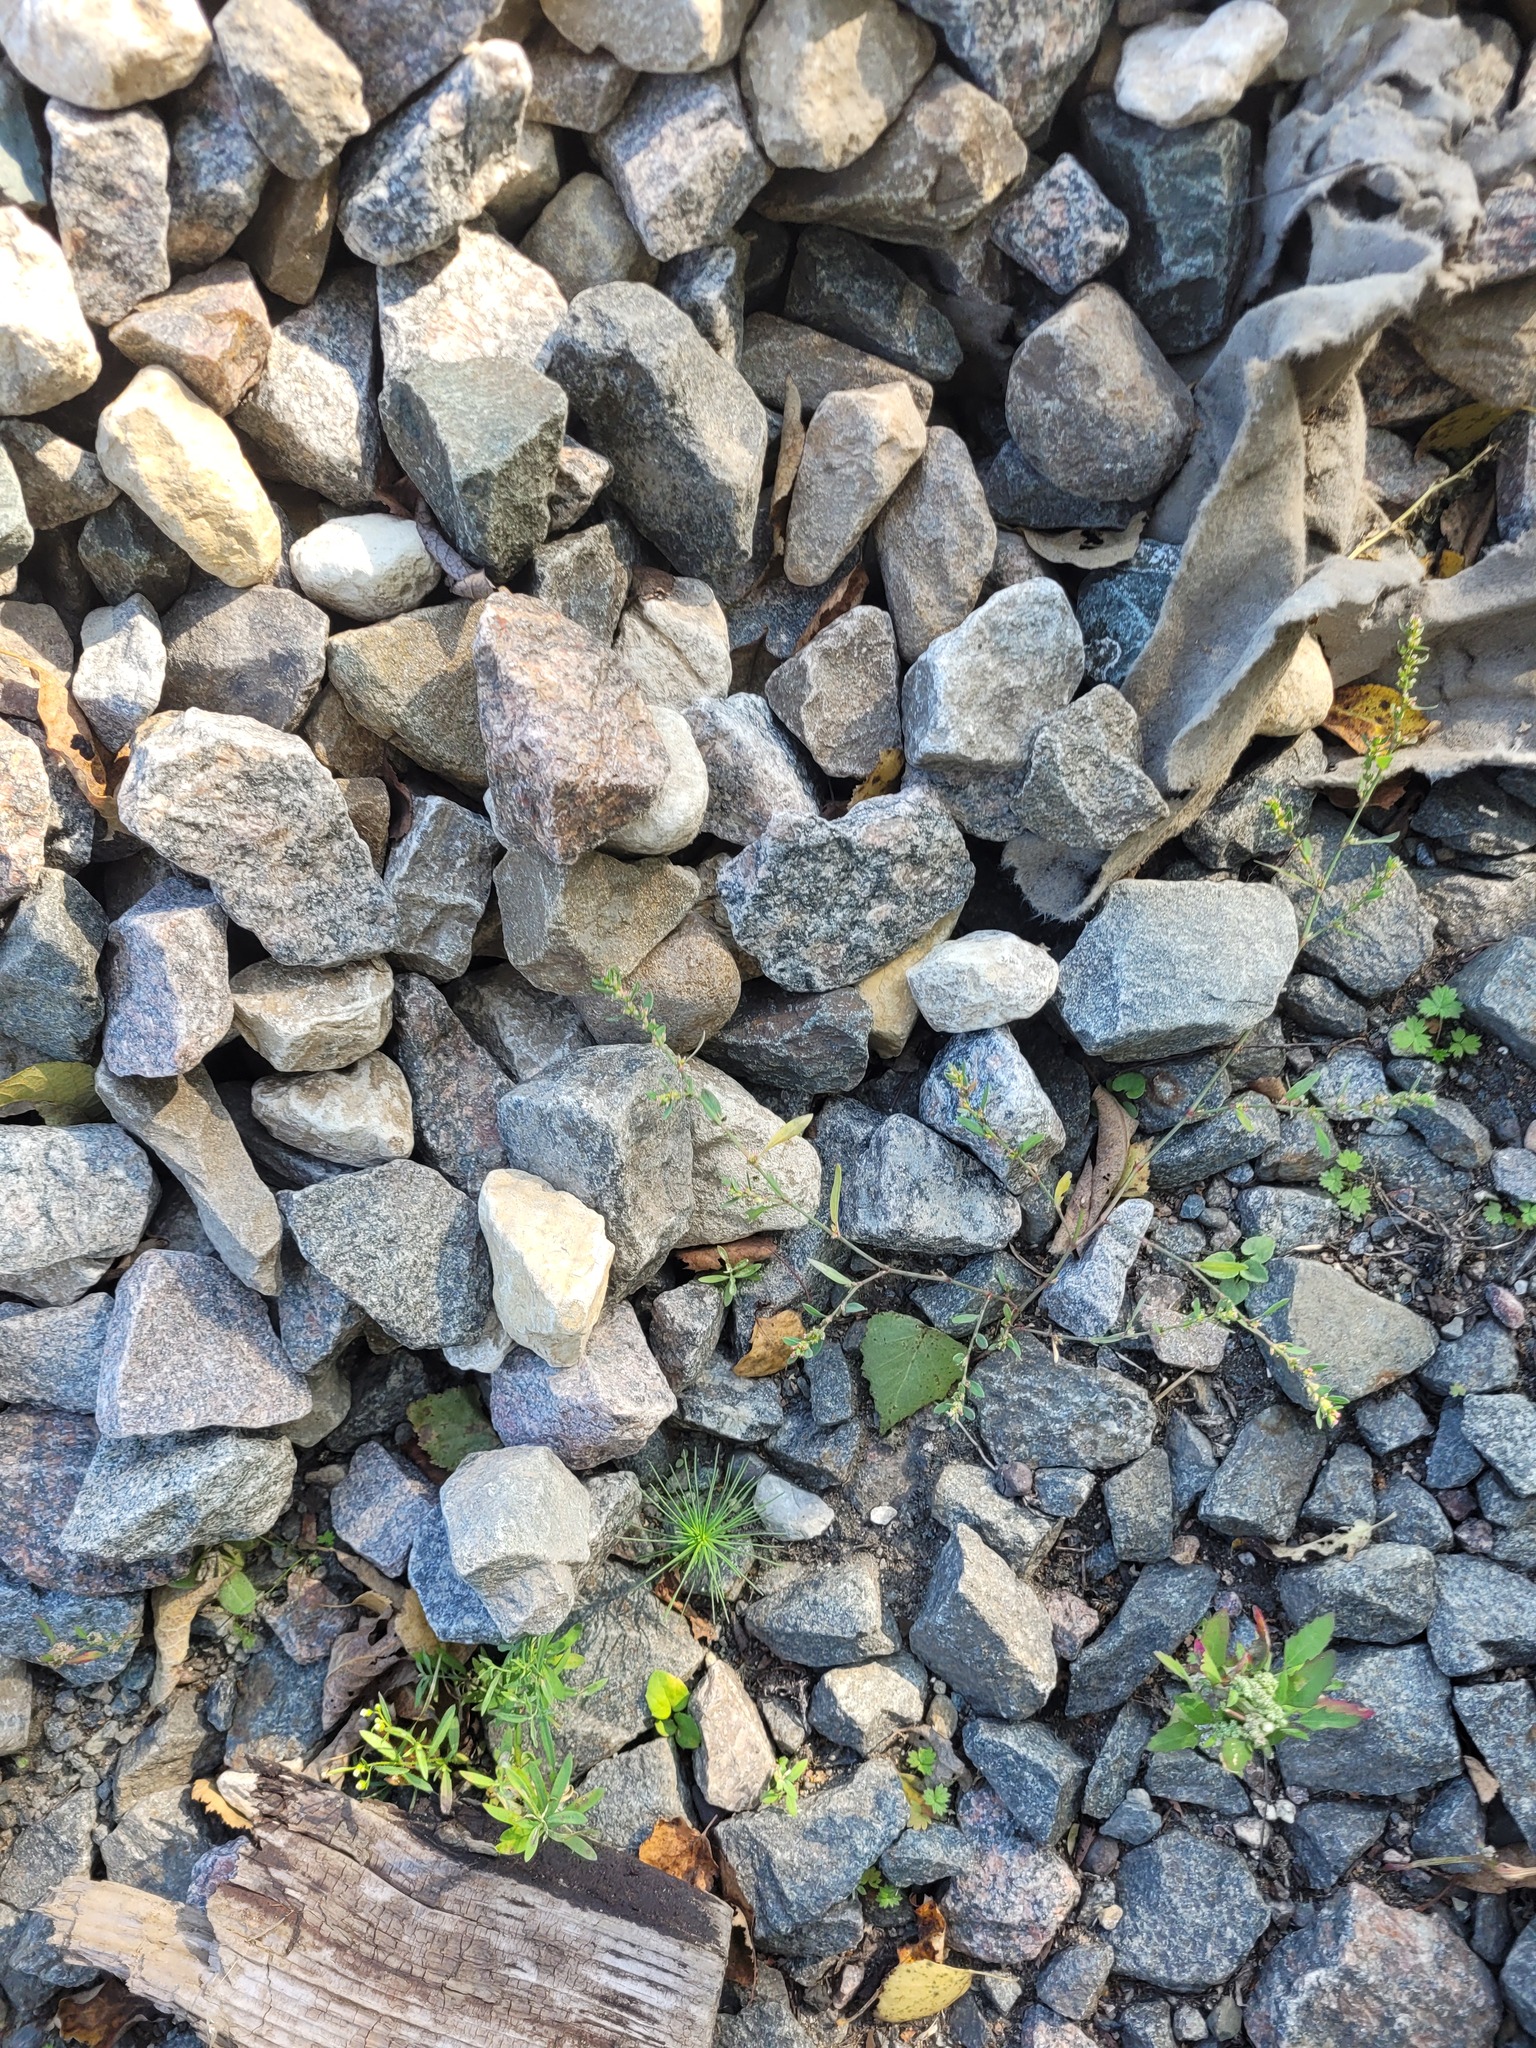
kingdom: Plantae
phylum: Tracheophyta
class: Magnoliopsida
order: Caryophyllales
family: Polygonaceae
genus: Polygonum
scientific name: Polygonum
